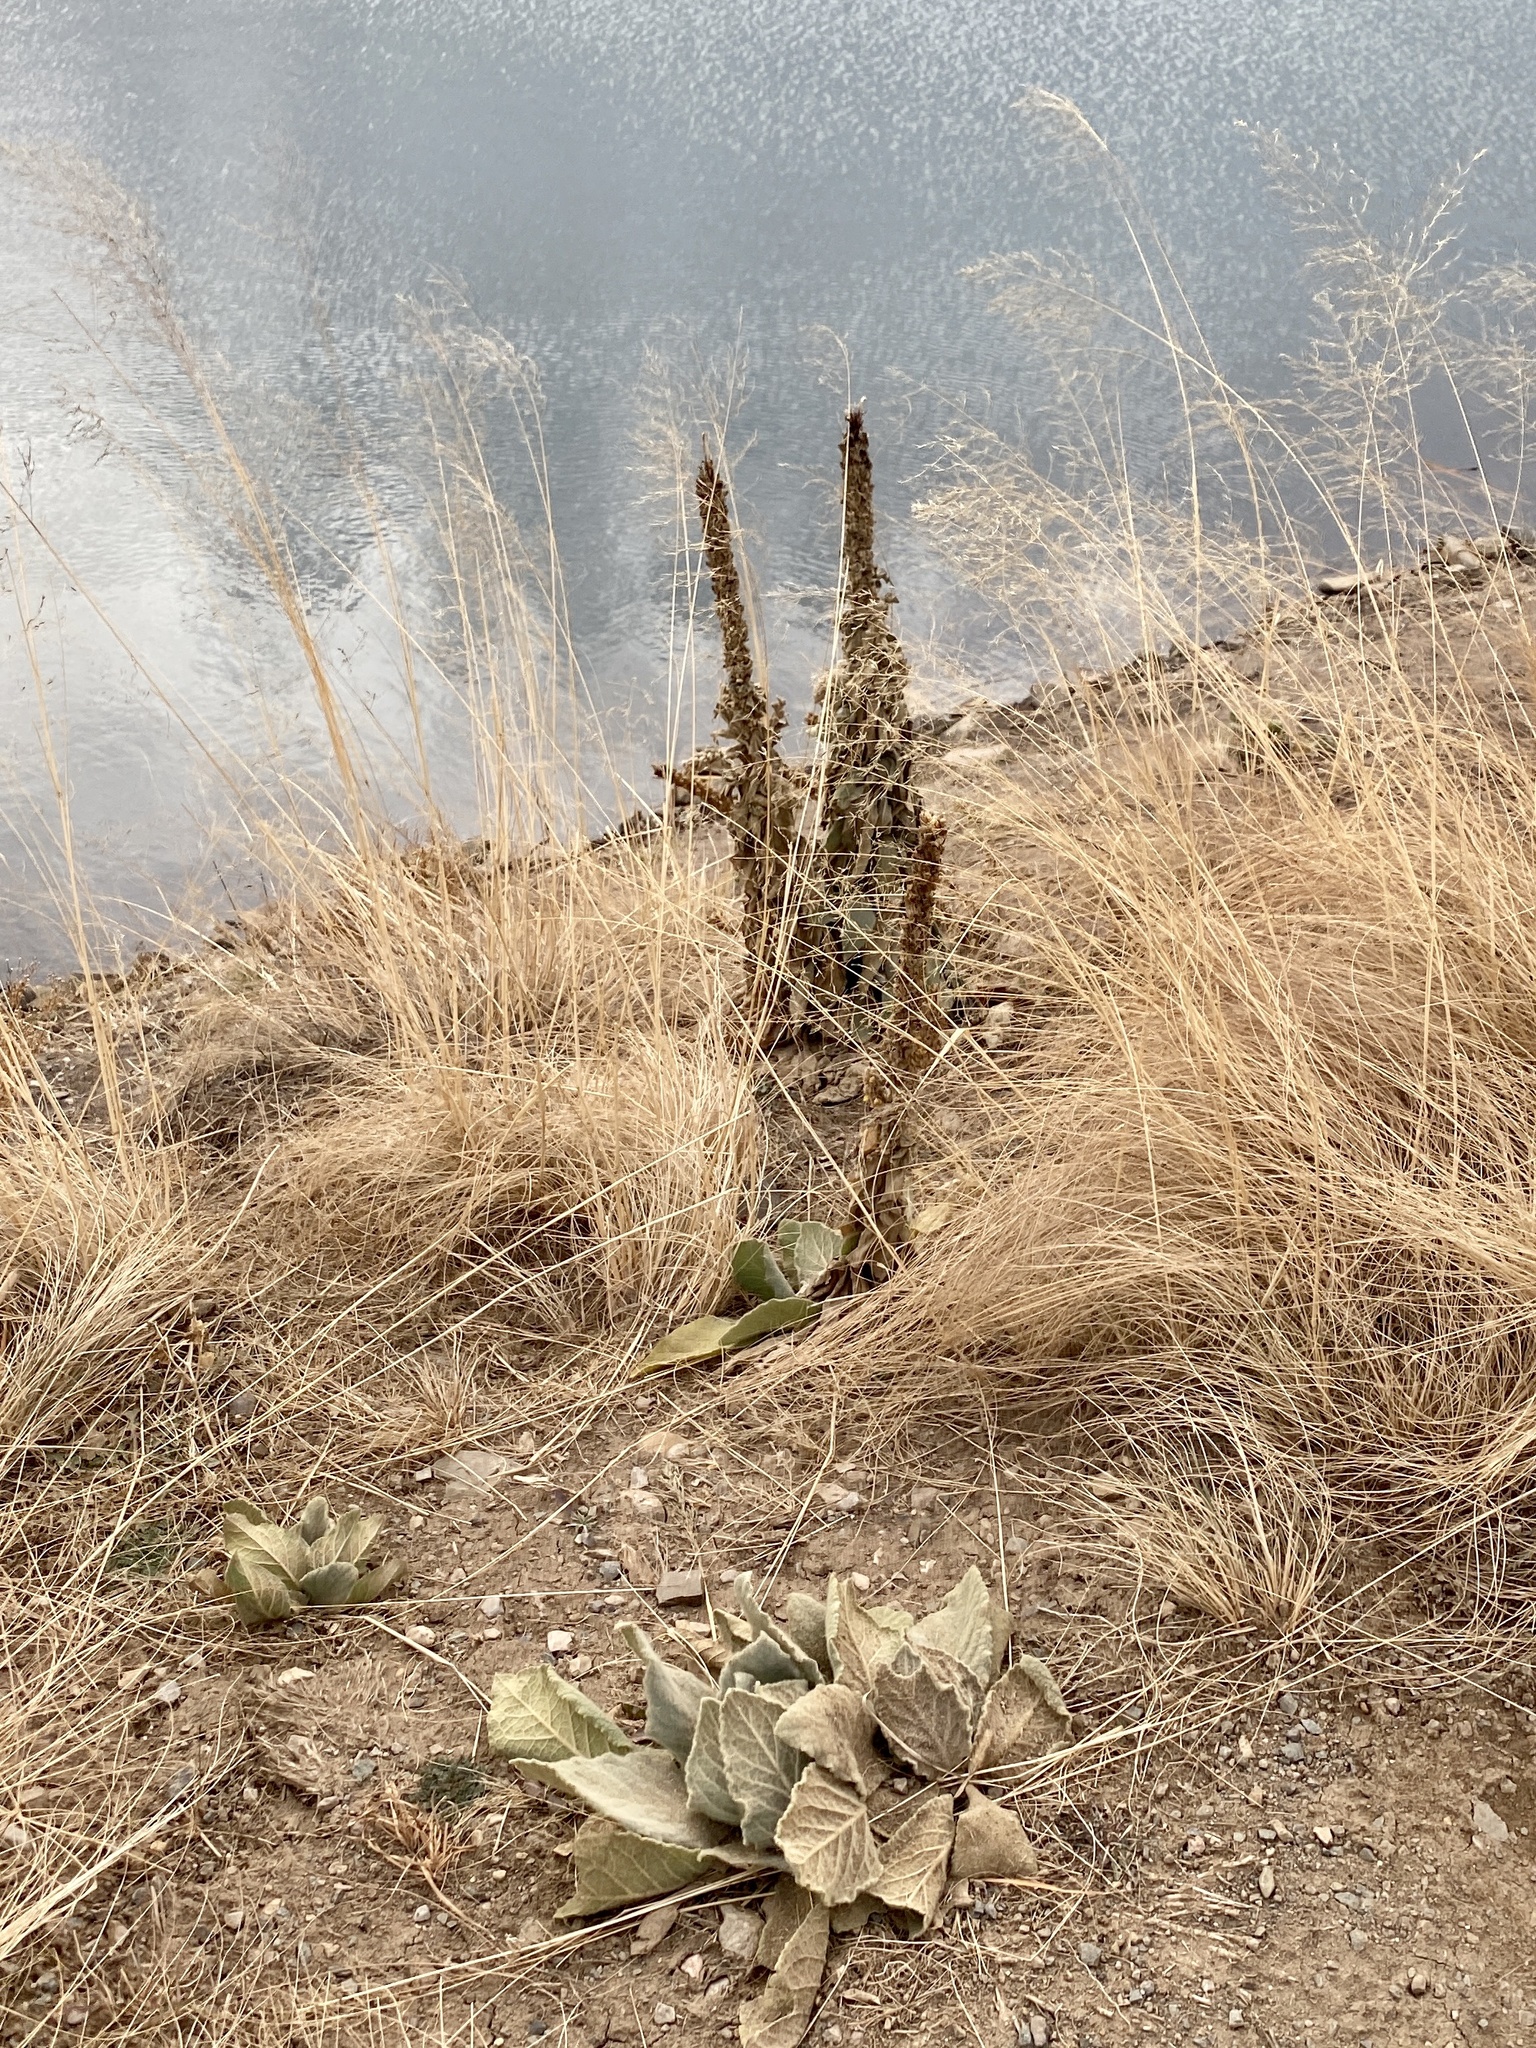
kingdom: Plantae
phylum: Tracheophyta
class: Magnoliopsida
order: Lamiales
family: Scrophulariaceae
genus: Verbascum
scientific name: Verbascum thapsus
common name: Common mullein
